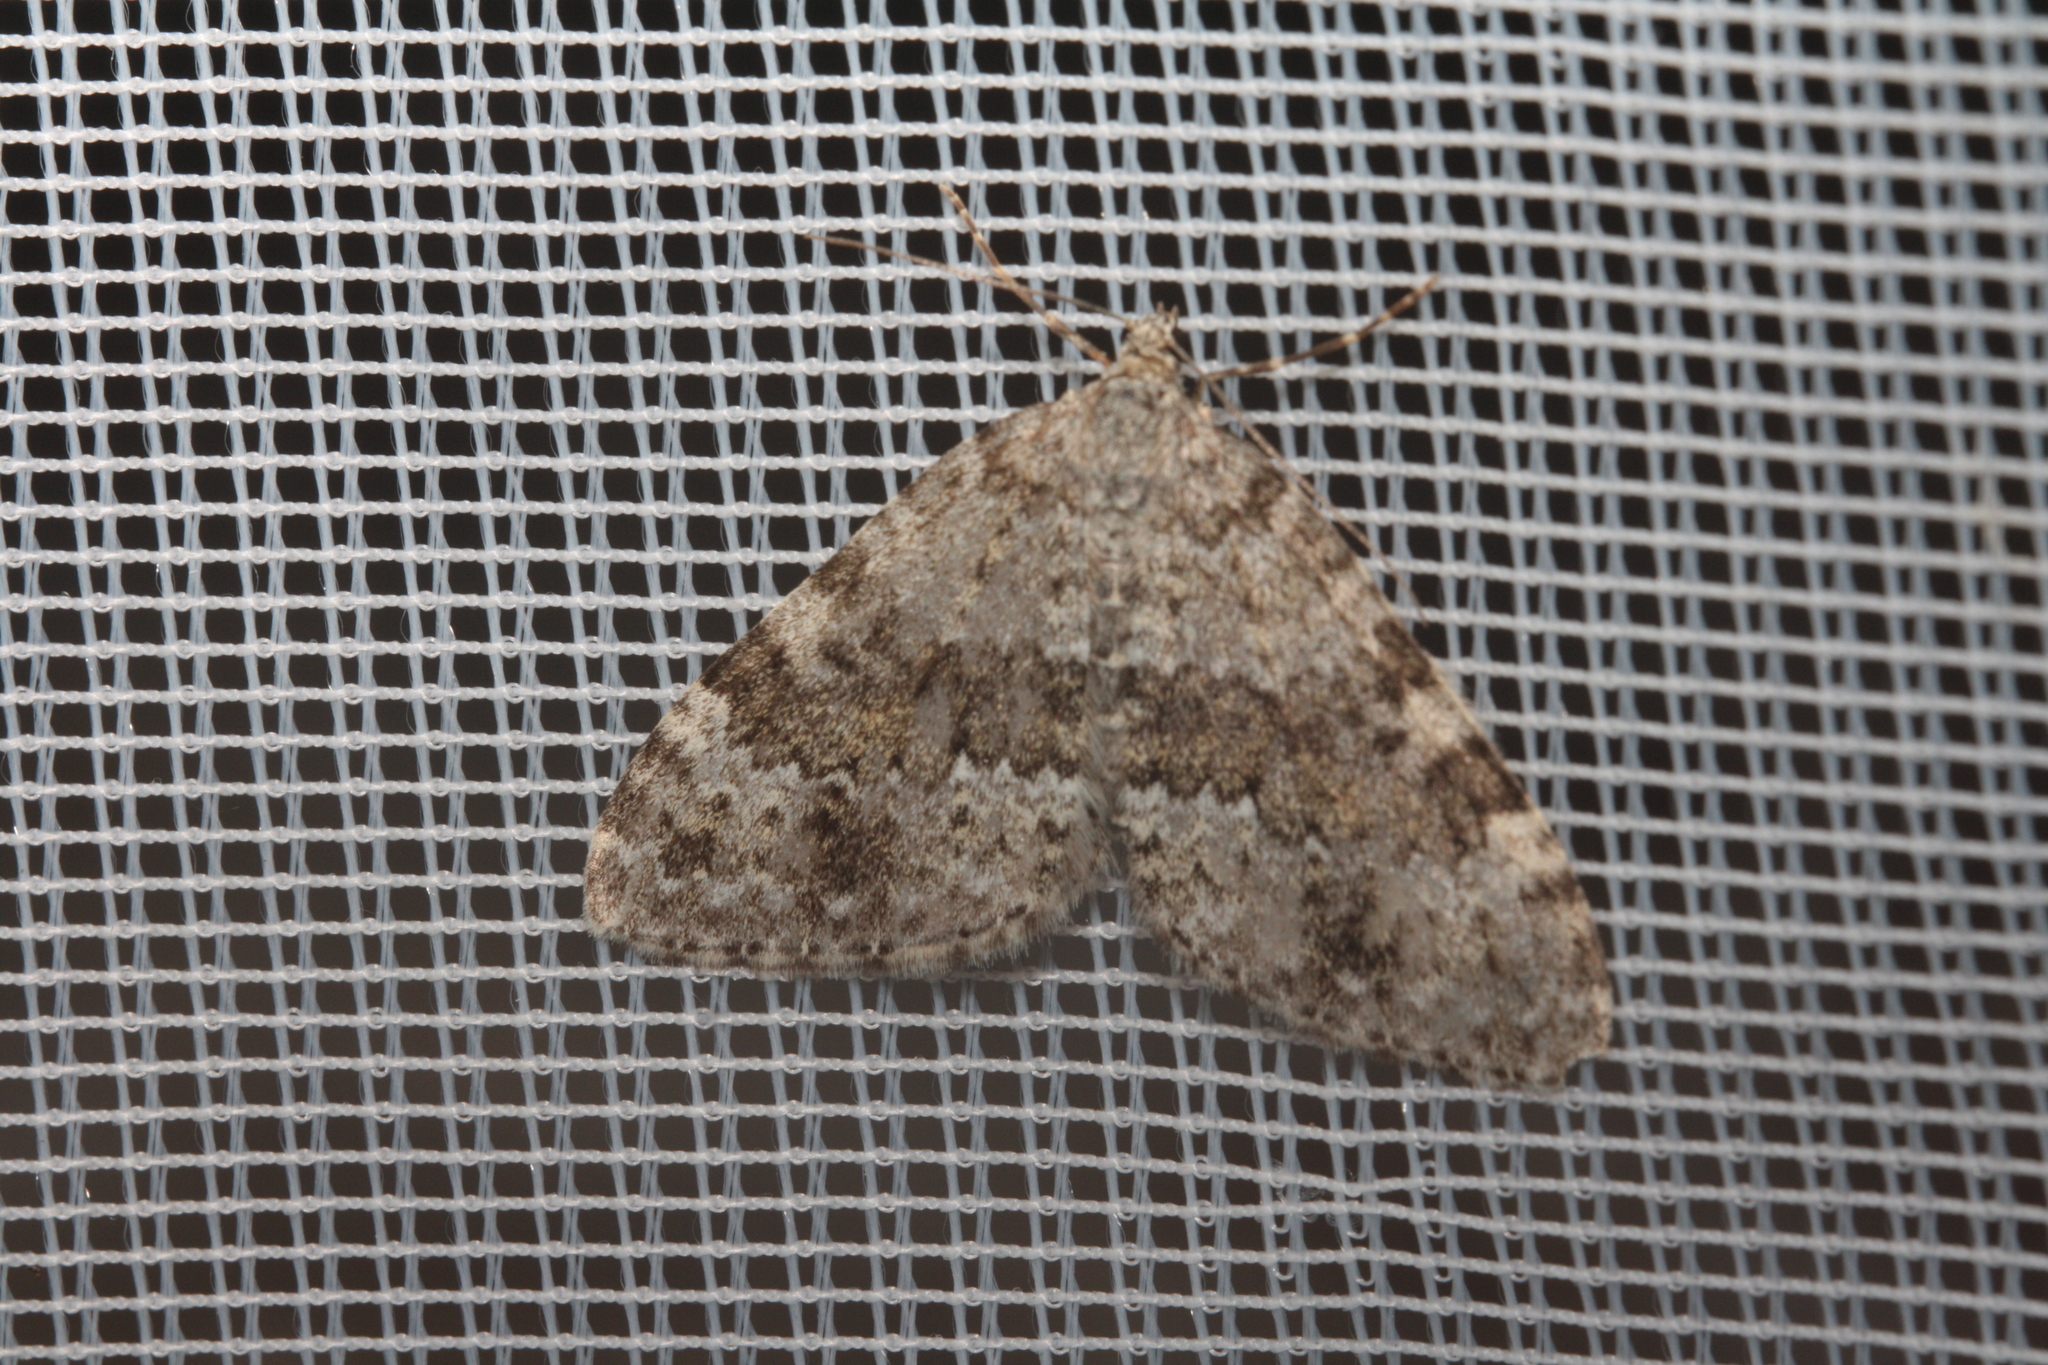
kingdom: Animalia
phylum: Arthropoda
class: Insecta
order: Lepidoptera
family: Geometridae
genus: Entephria
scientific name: Entephria caesiata
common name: Grey mountain moth
